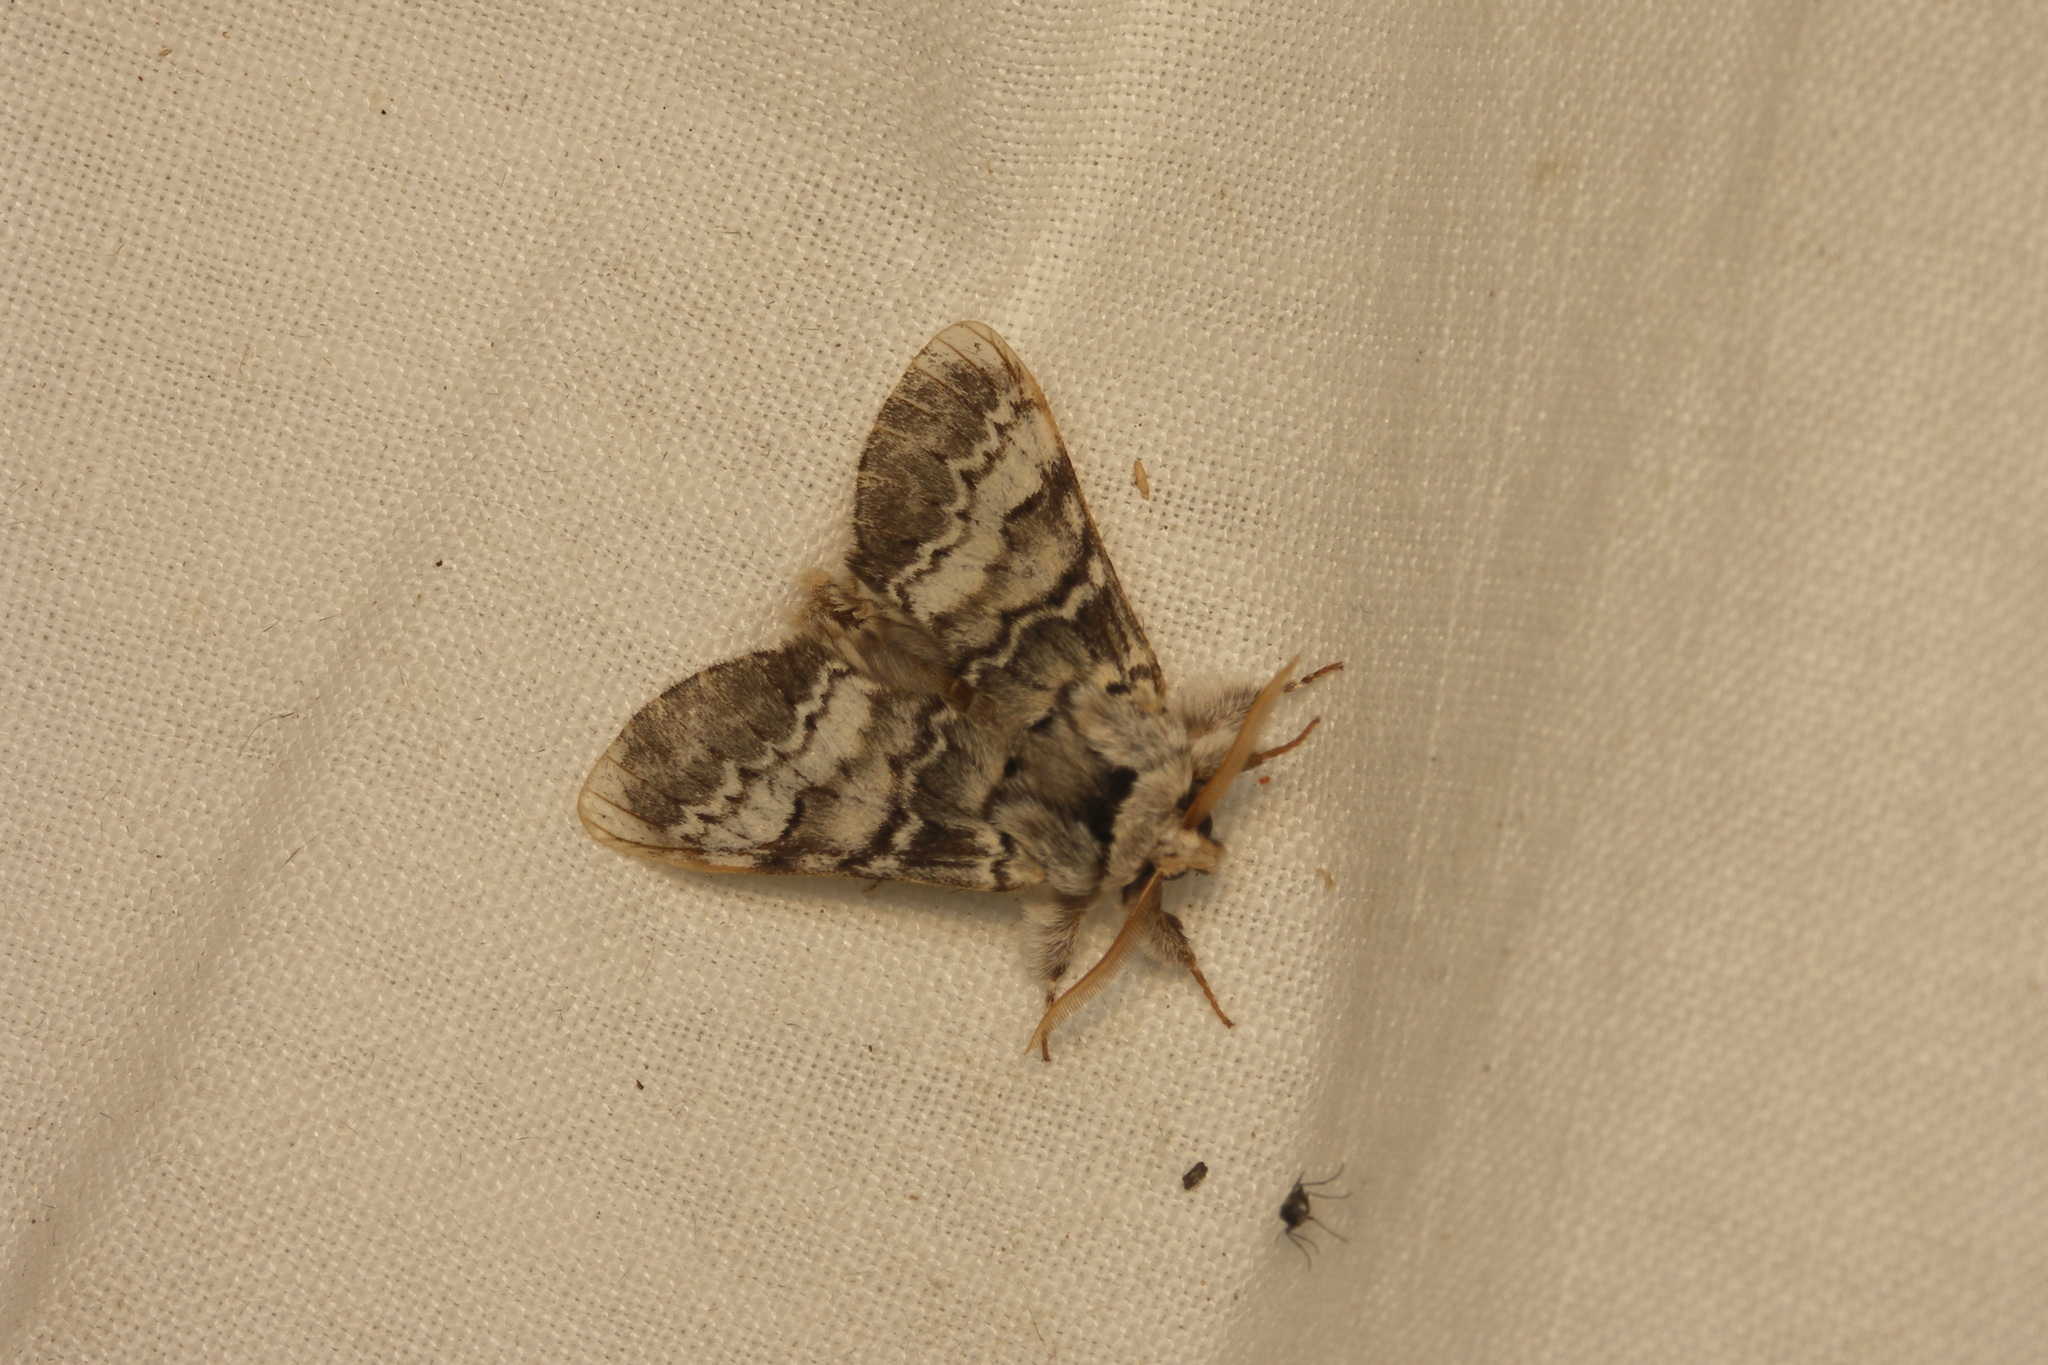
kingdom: Animalia
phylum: Arthropoda
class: Insecta
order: Lepidoptera
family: Notodontidae
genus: Drymonia
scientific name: Drymonia ruficornis
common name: Lunar marbled brown
